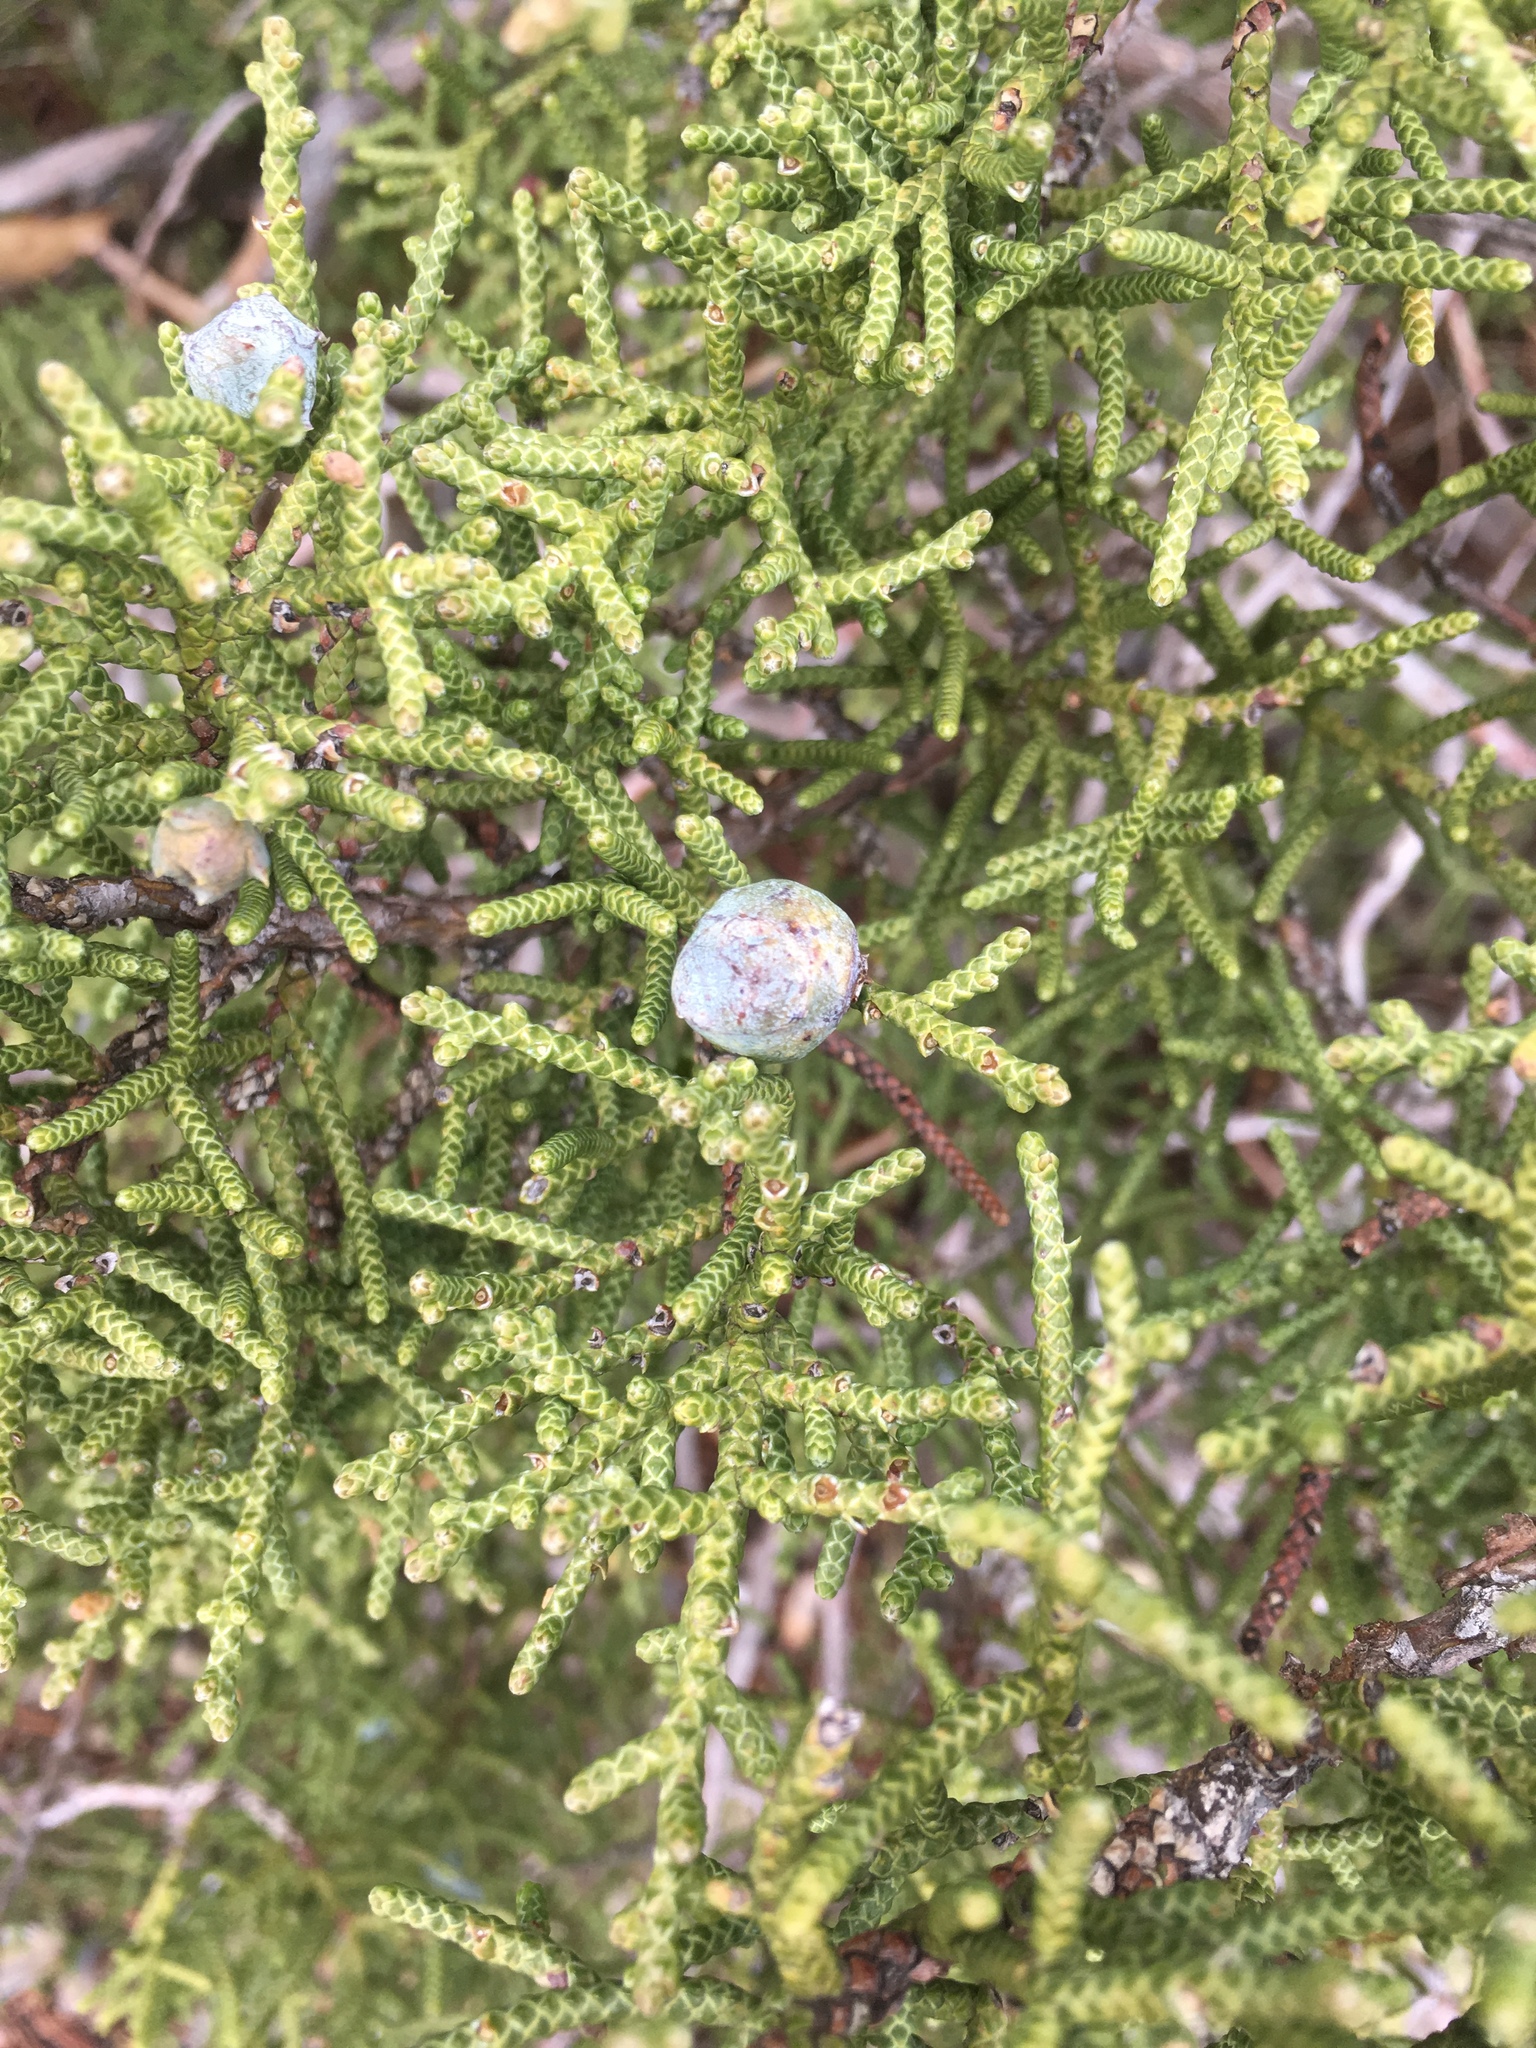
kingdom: Plantae
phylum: Tracheophyta
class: Pinopsida
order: Pinales
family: Cupressaceae
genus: Juniperus
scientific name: Juniperus californica
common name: California juniper
